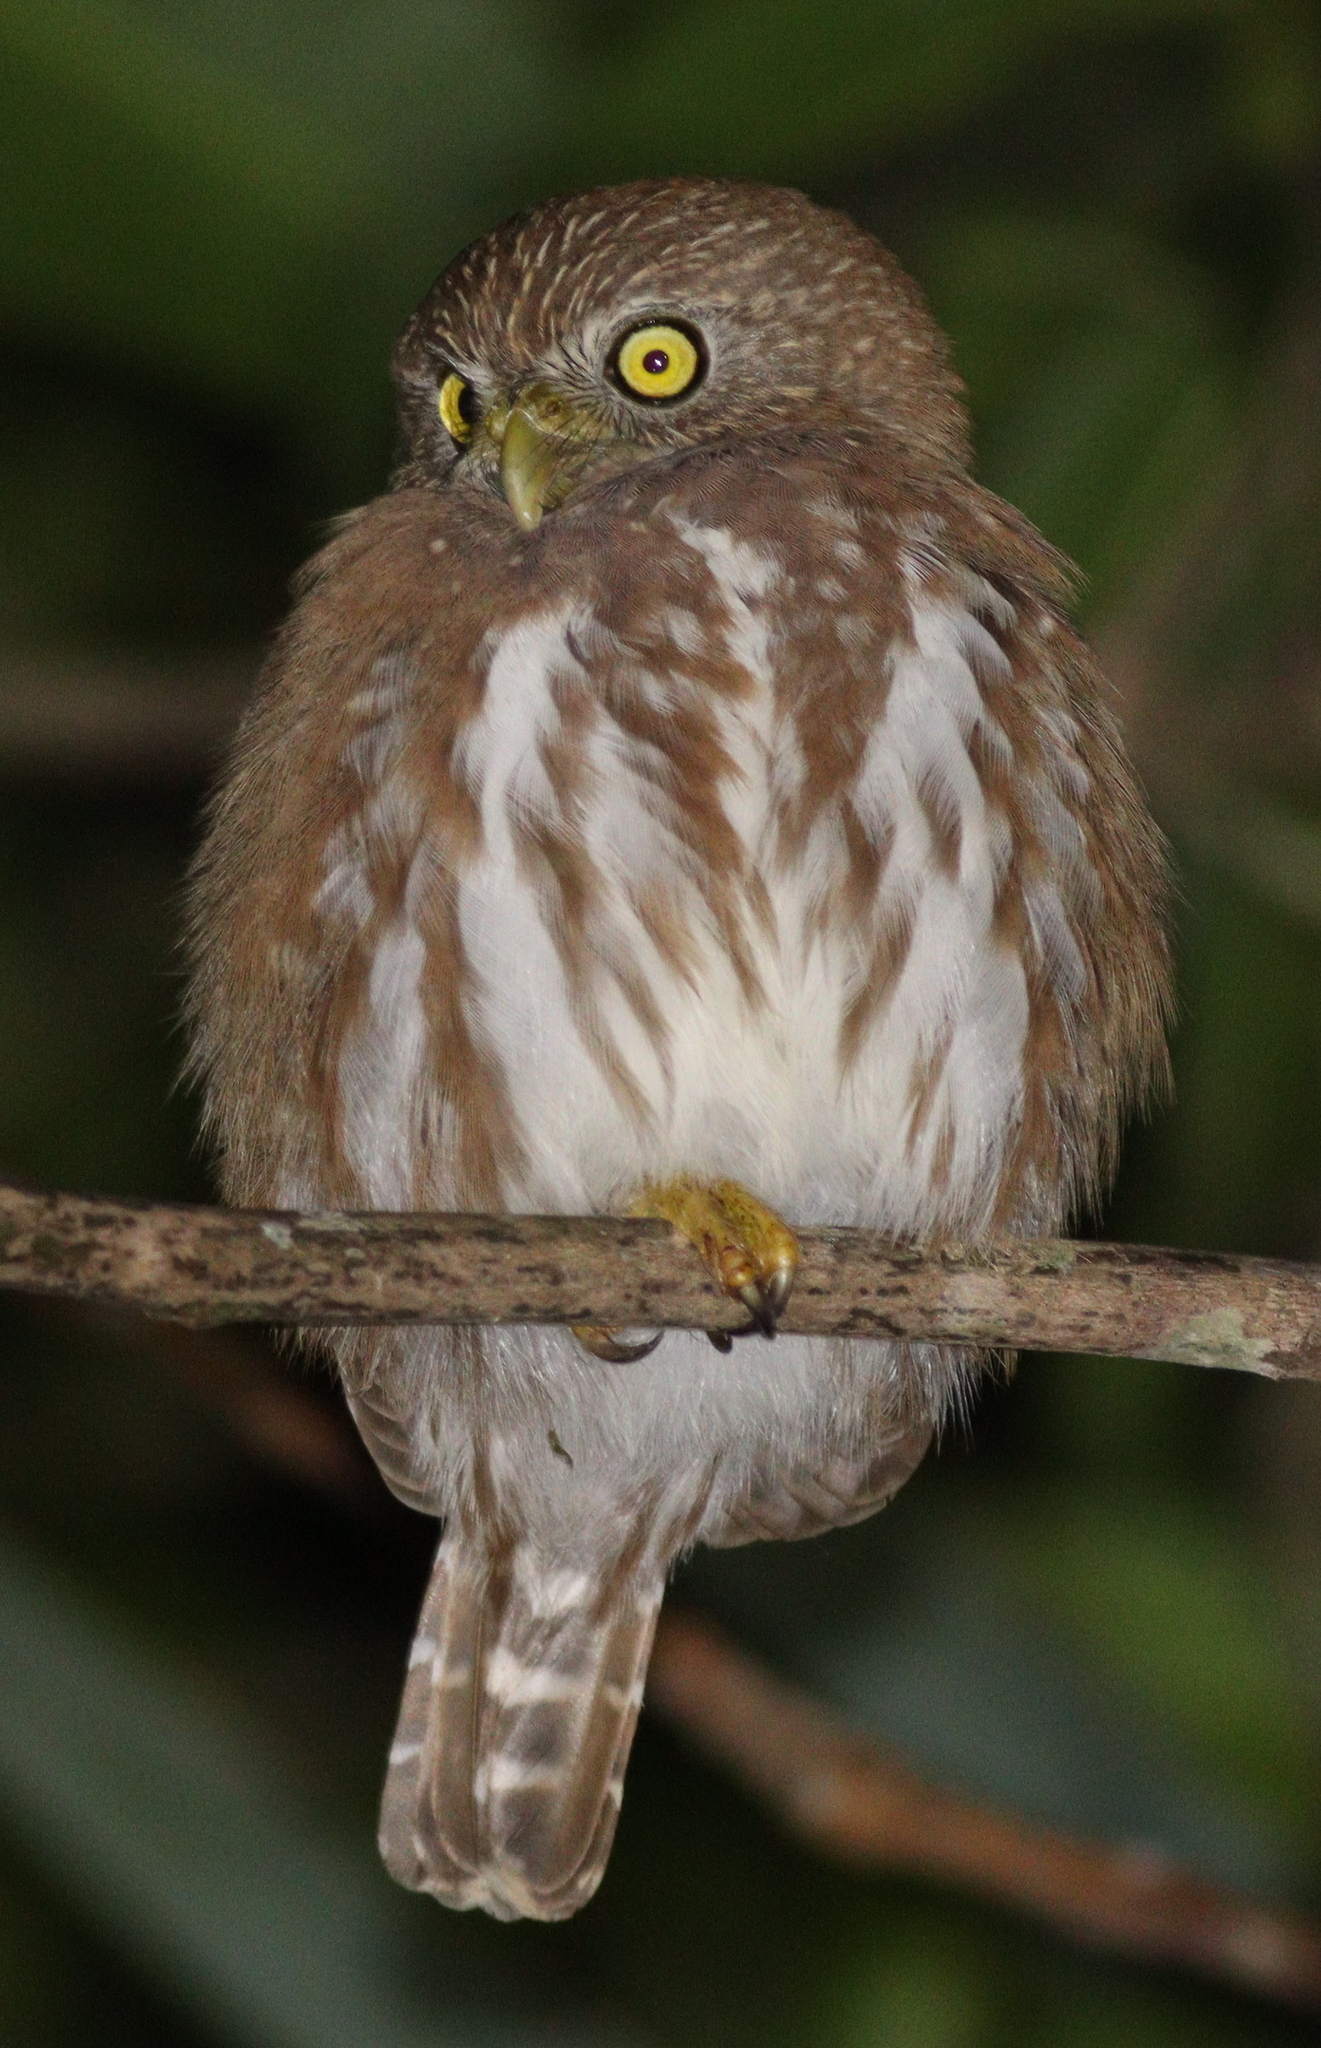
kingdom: Animalia
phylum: Chordata
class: Aves
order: Strigiformes
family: Strigidae
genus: Glaucidium
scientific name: Glaucidium brasilianum
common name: Ferruginous pygmy-owl
